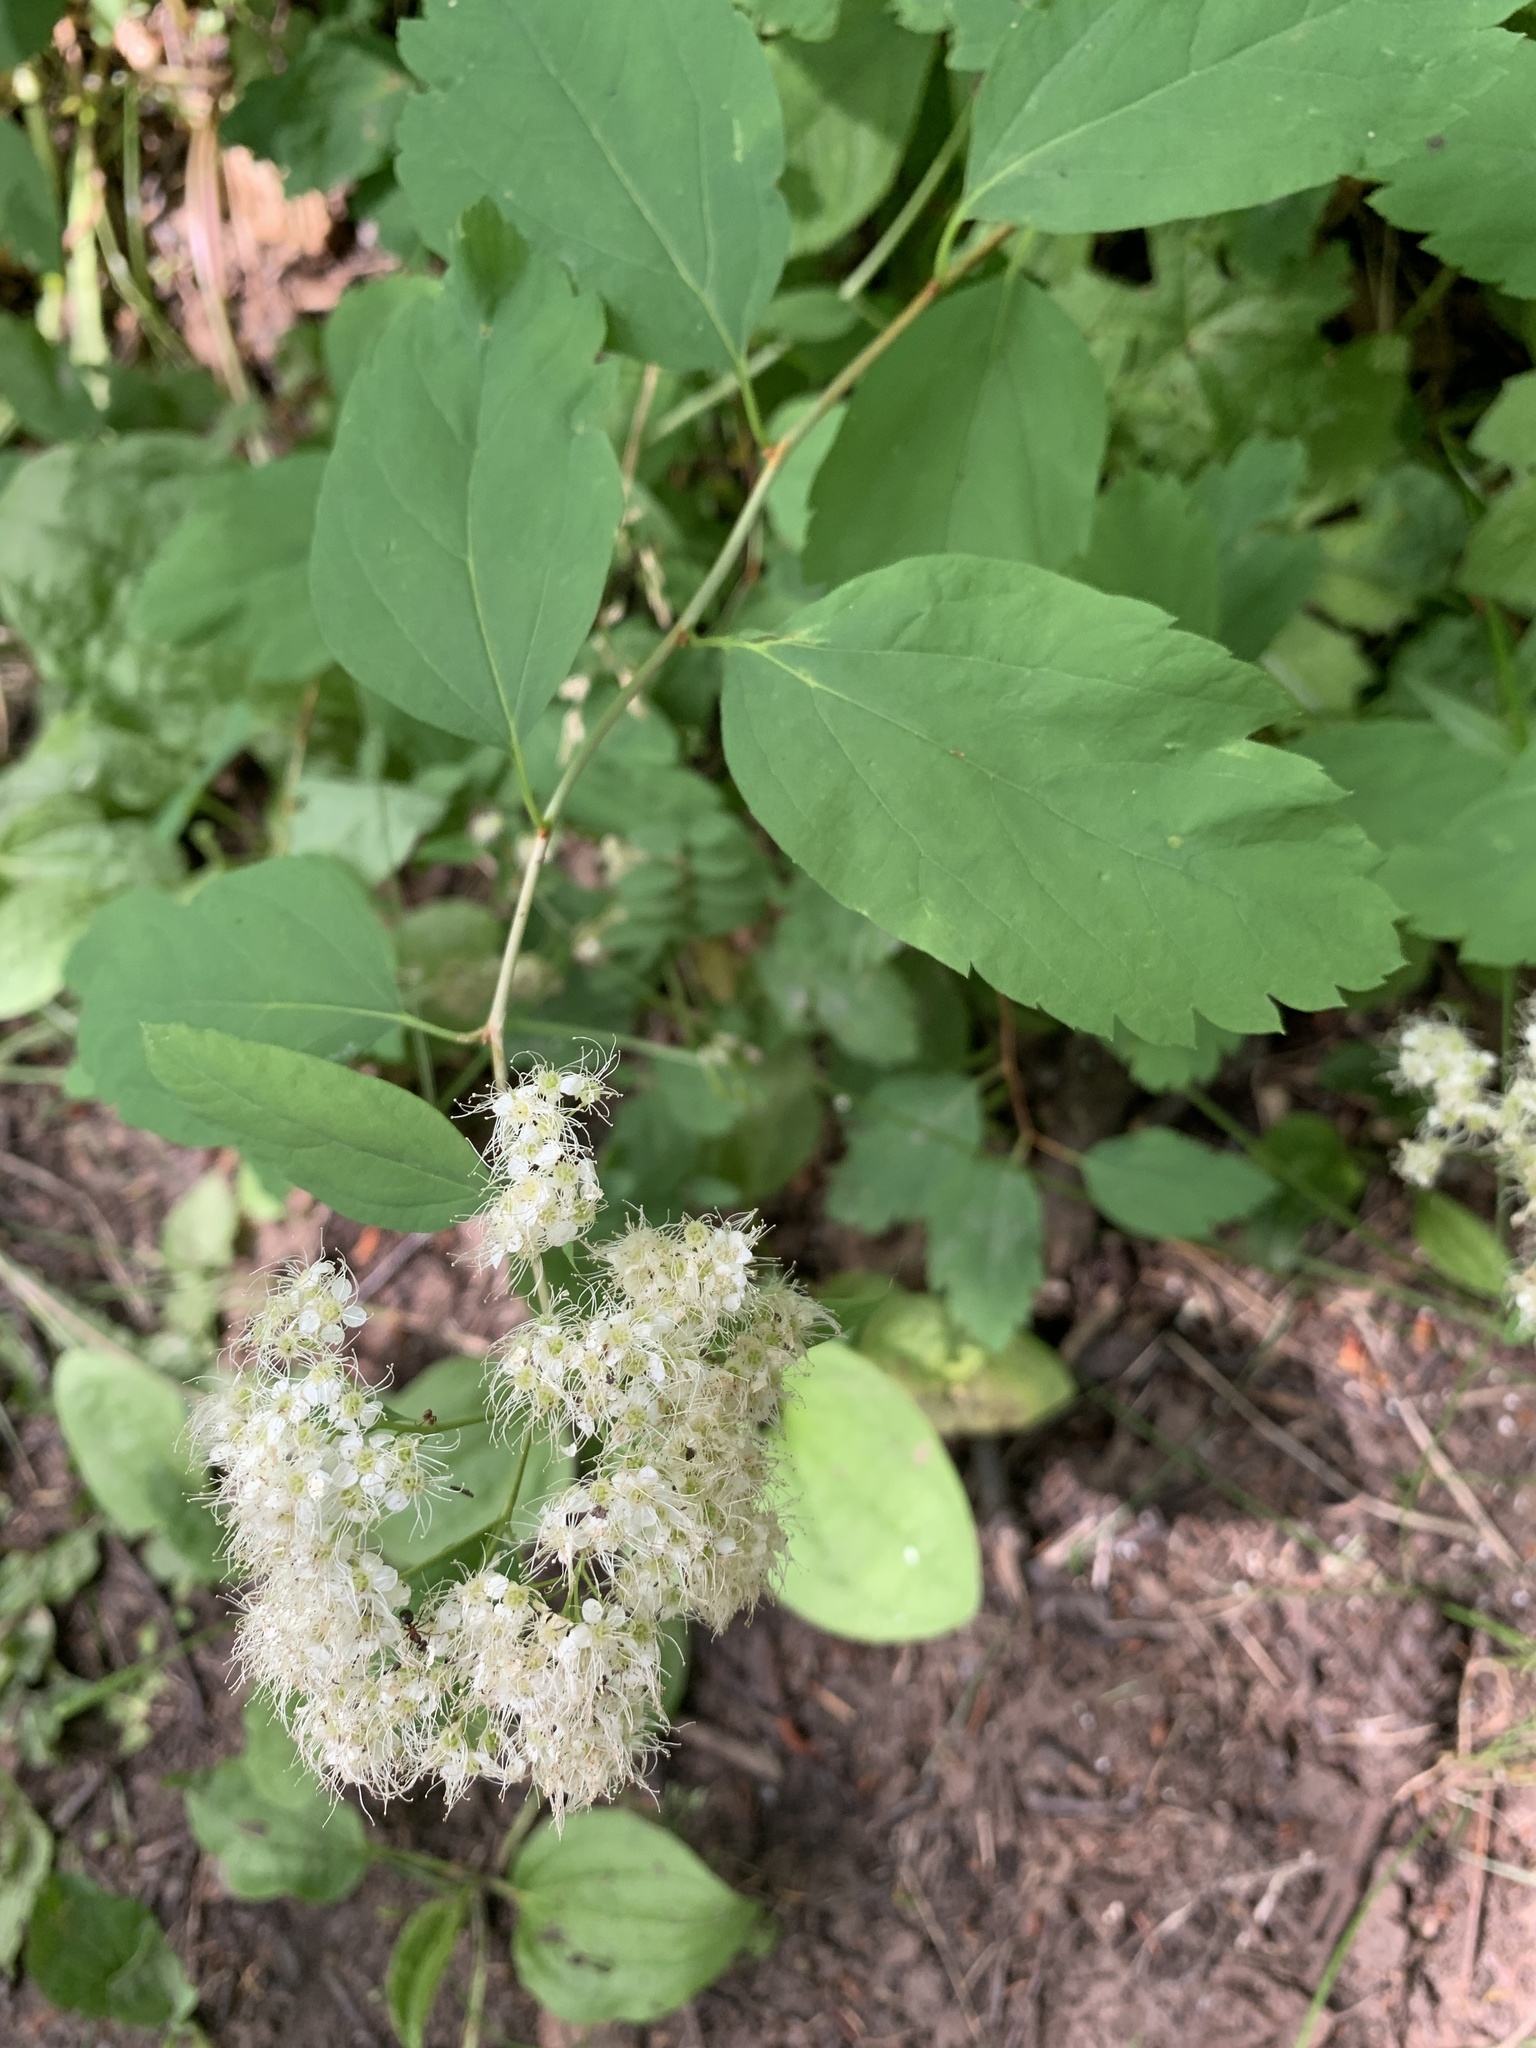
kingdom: Plantae
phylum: Tracheophyta
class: Magnoliopsida
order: Rosales
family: Rosaceae
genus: Spiraea
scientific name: Spiraea lucida
